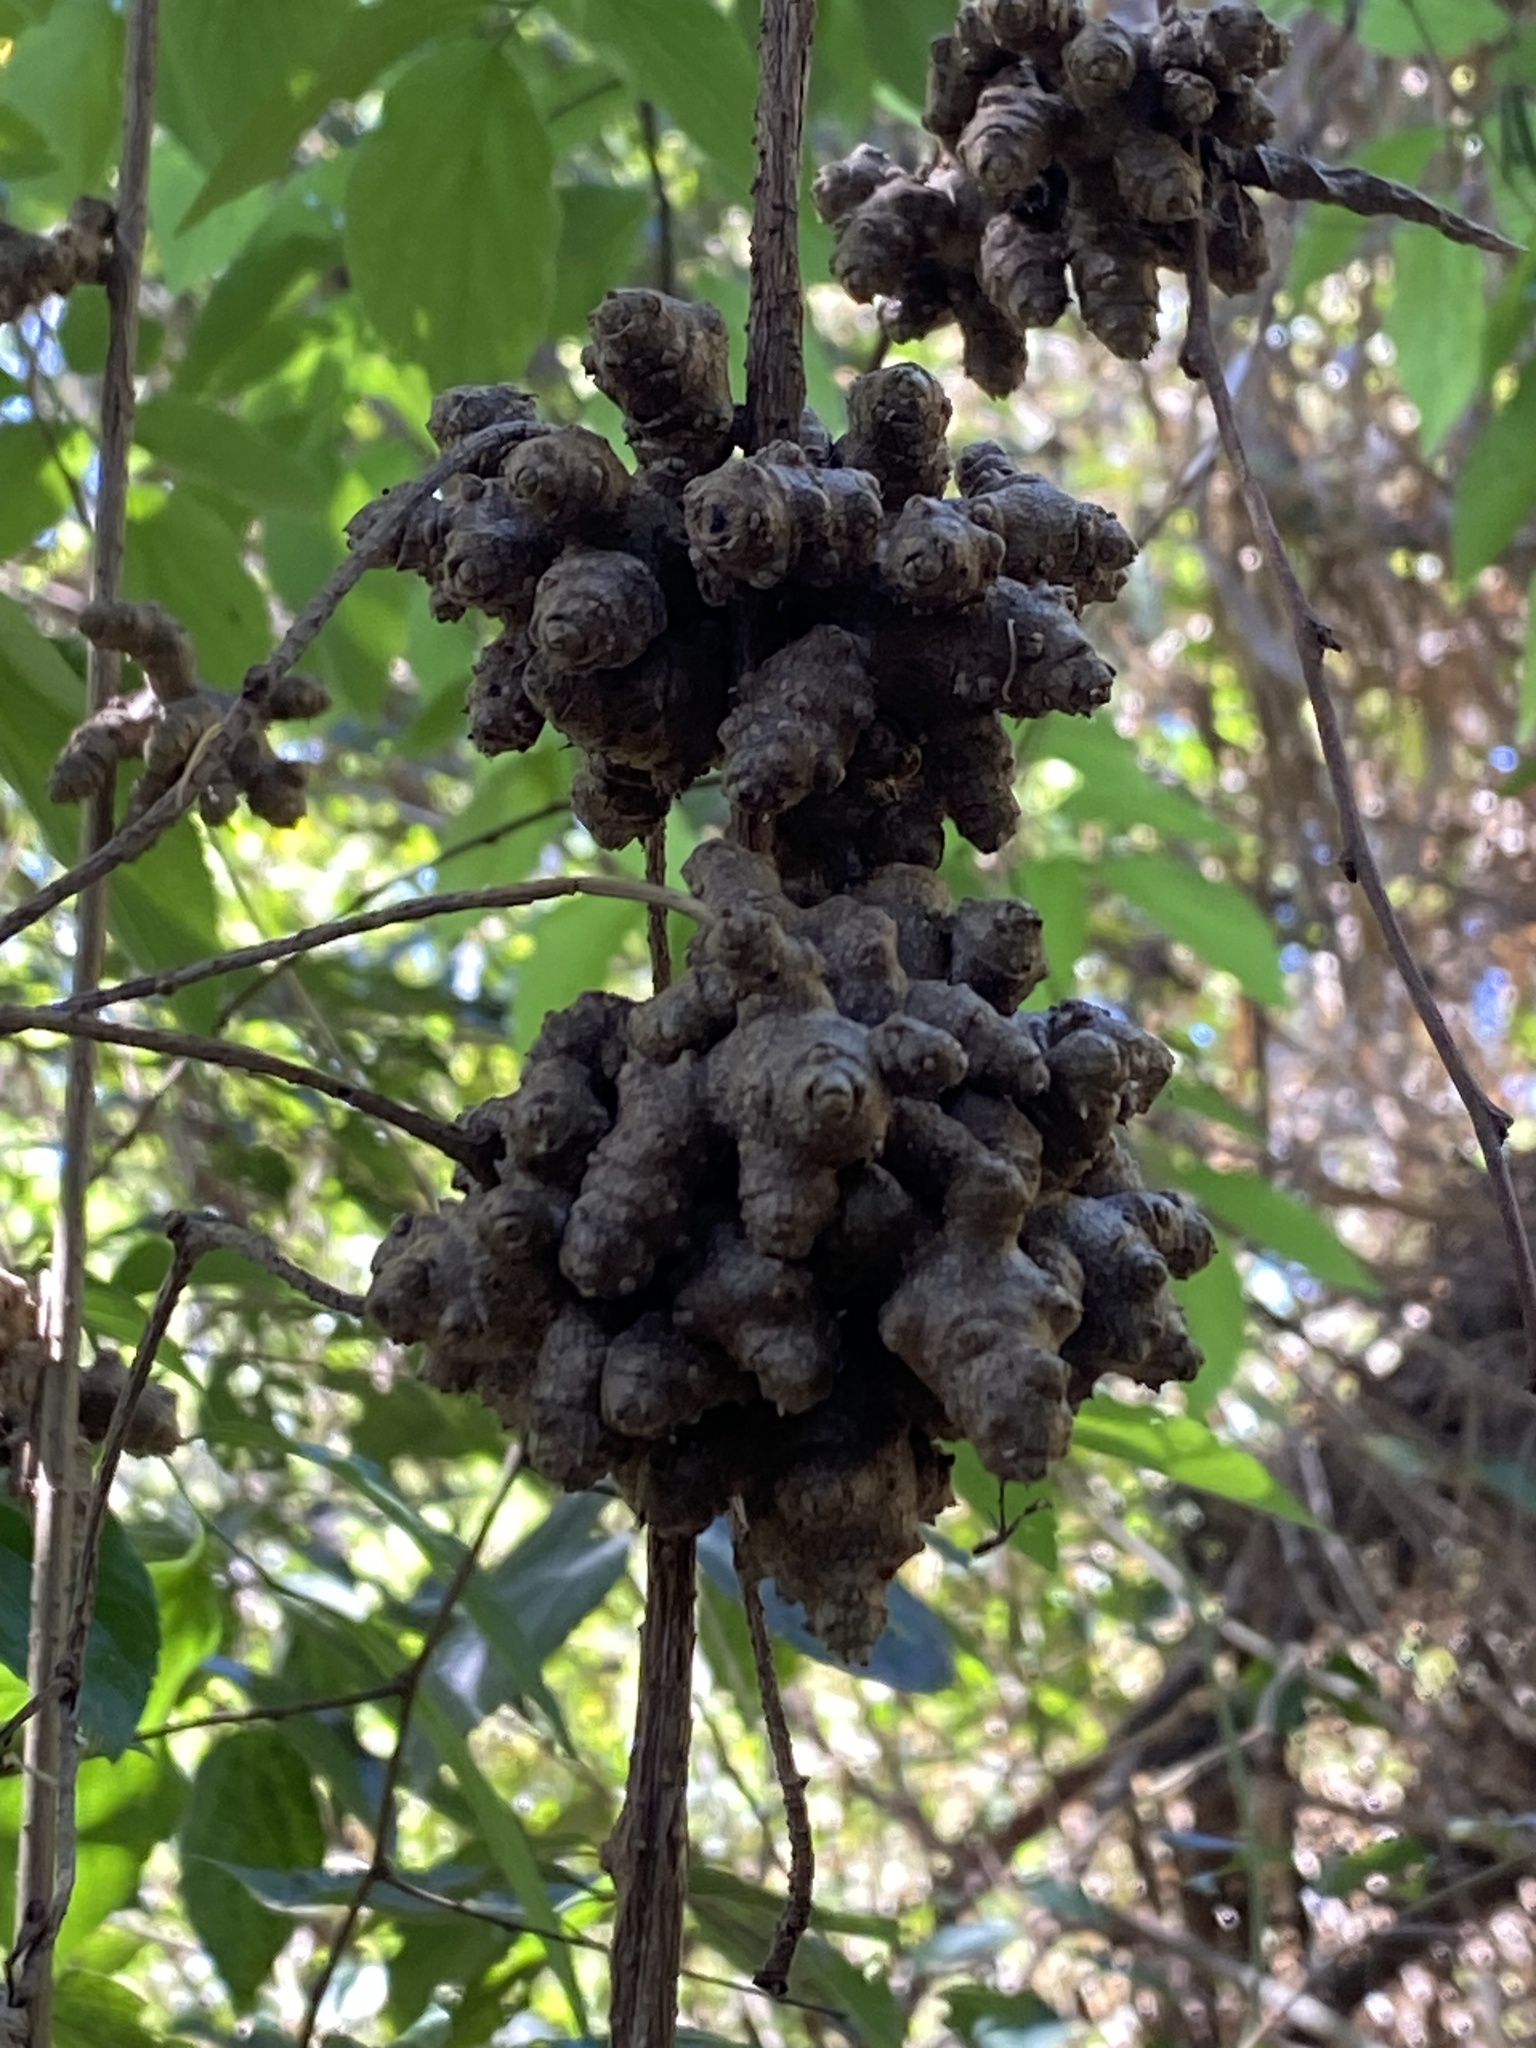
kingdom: Plantae
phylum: Tracheophyta
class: Magnoliopsida
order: Caryophyllales
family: Basellaceae
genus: Anredera
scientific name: Anredera cordifolia
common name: Heartleaf madeiravine
